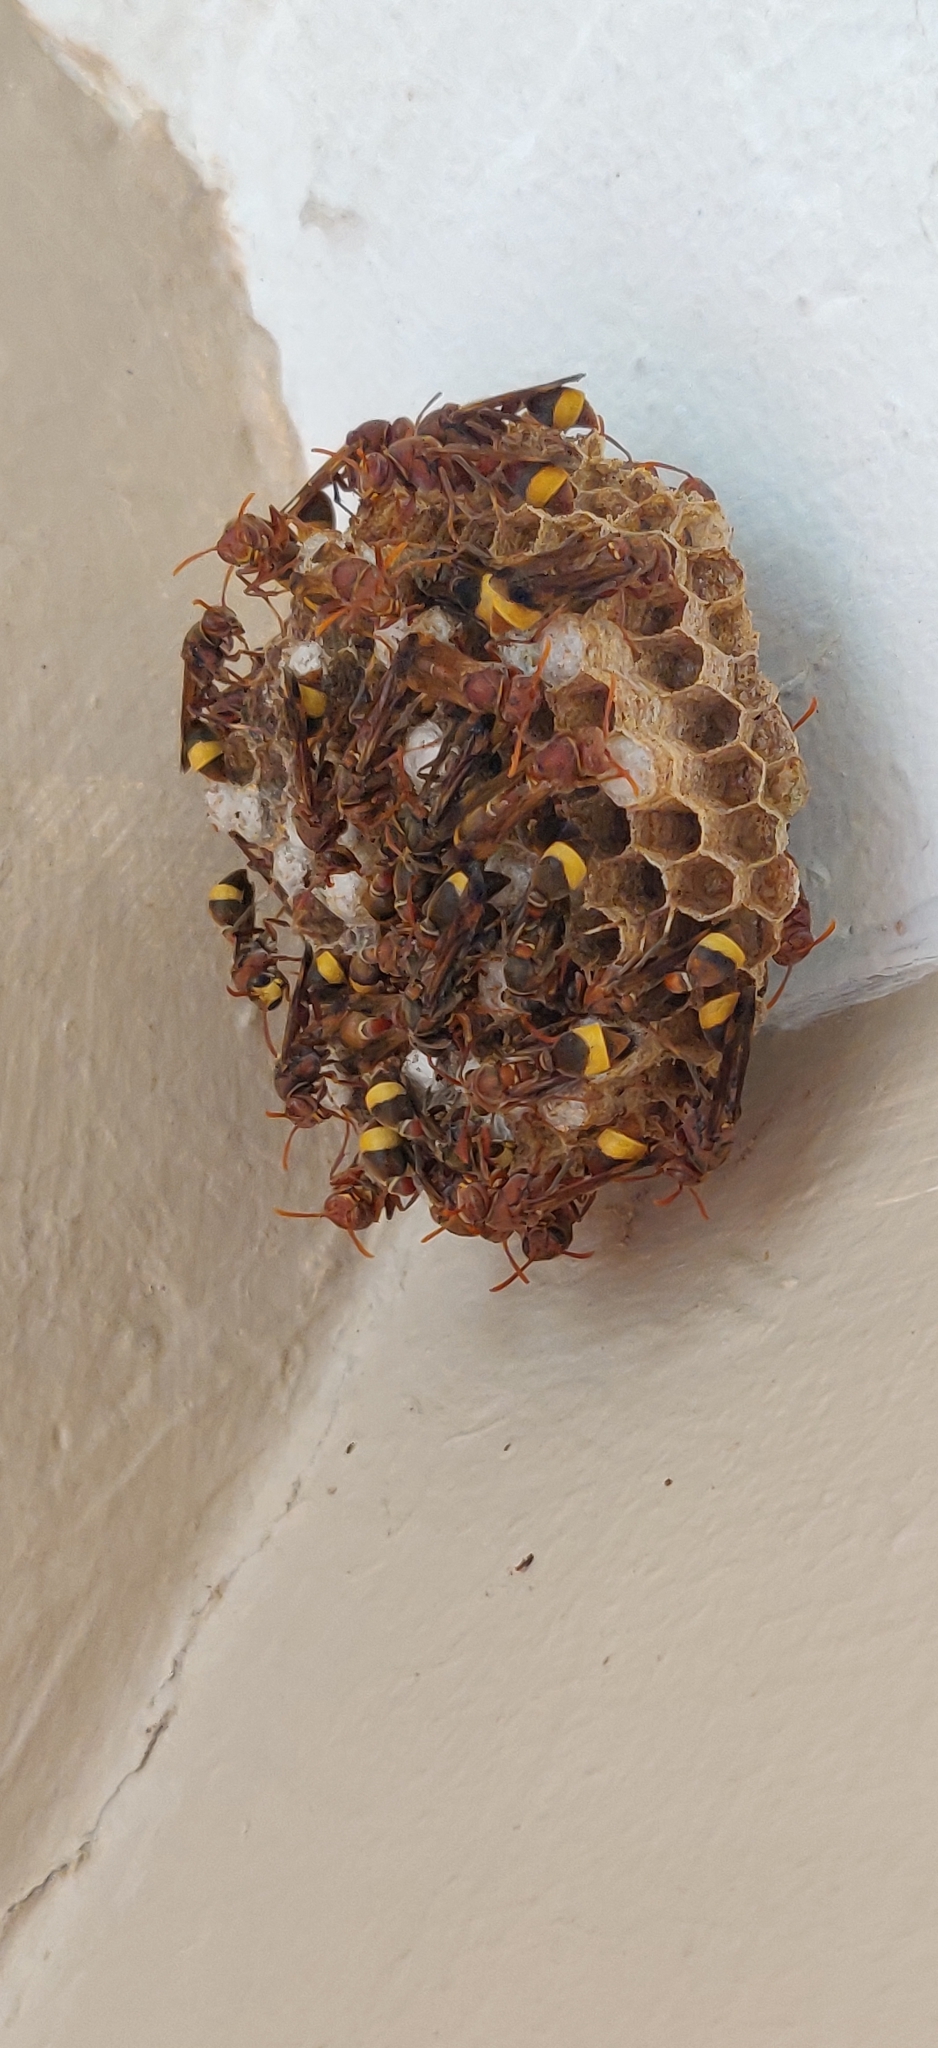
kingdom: Animalia
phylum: Arthropoda
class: Insecta
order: Hymenoptera
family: Vespidae
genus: Ropalidia
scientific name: Ropalidia
